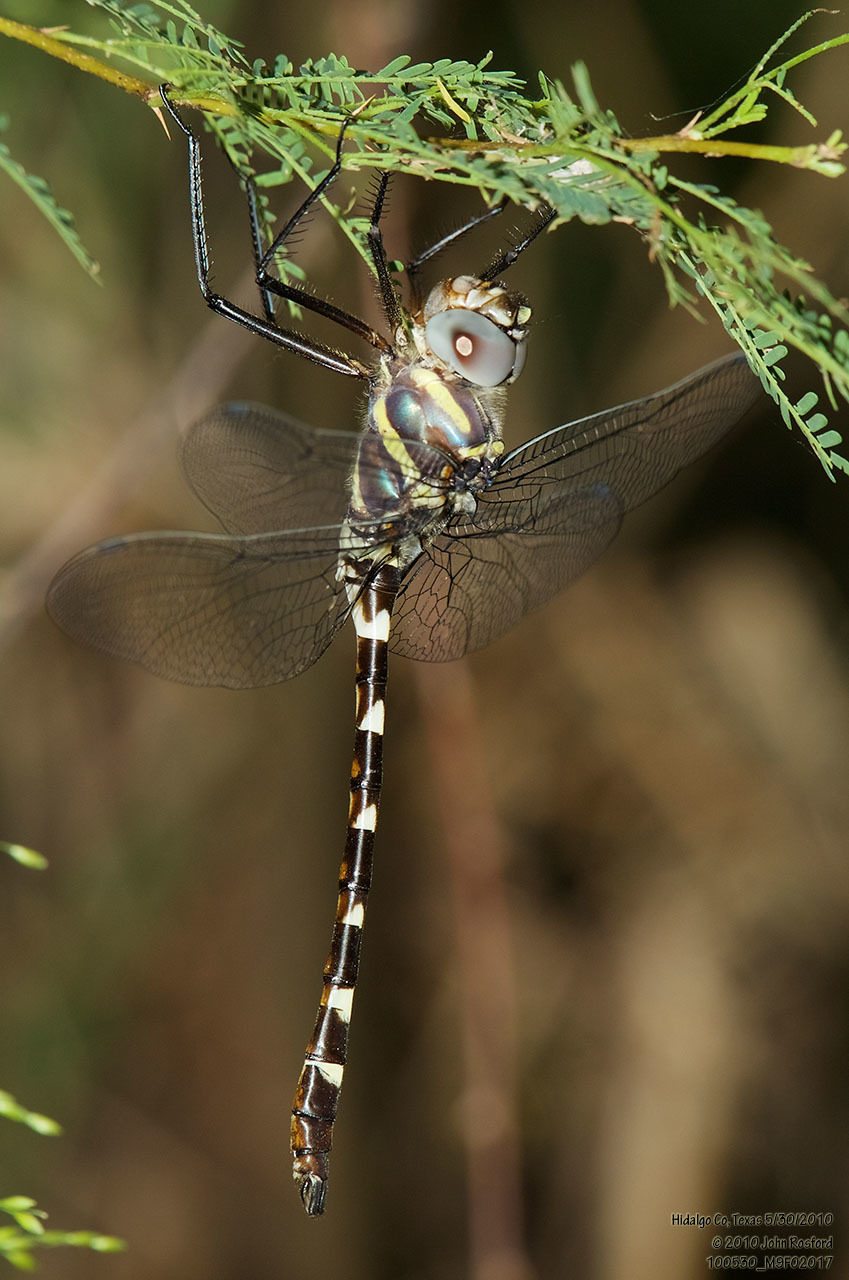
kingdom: Animalia
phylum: Arthropoda
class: Insecta
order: Odonata
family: Macromiidae
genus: Macromia
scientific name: Macromia annulata
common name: Bronzed river cruiser
